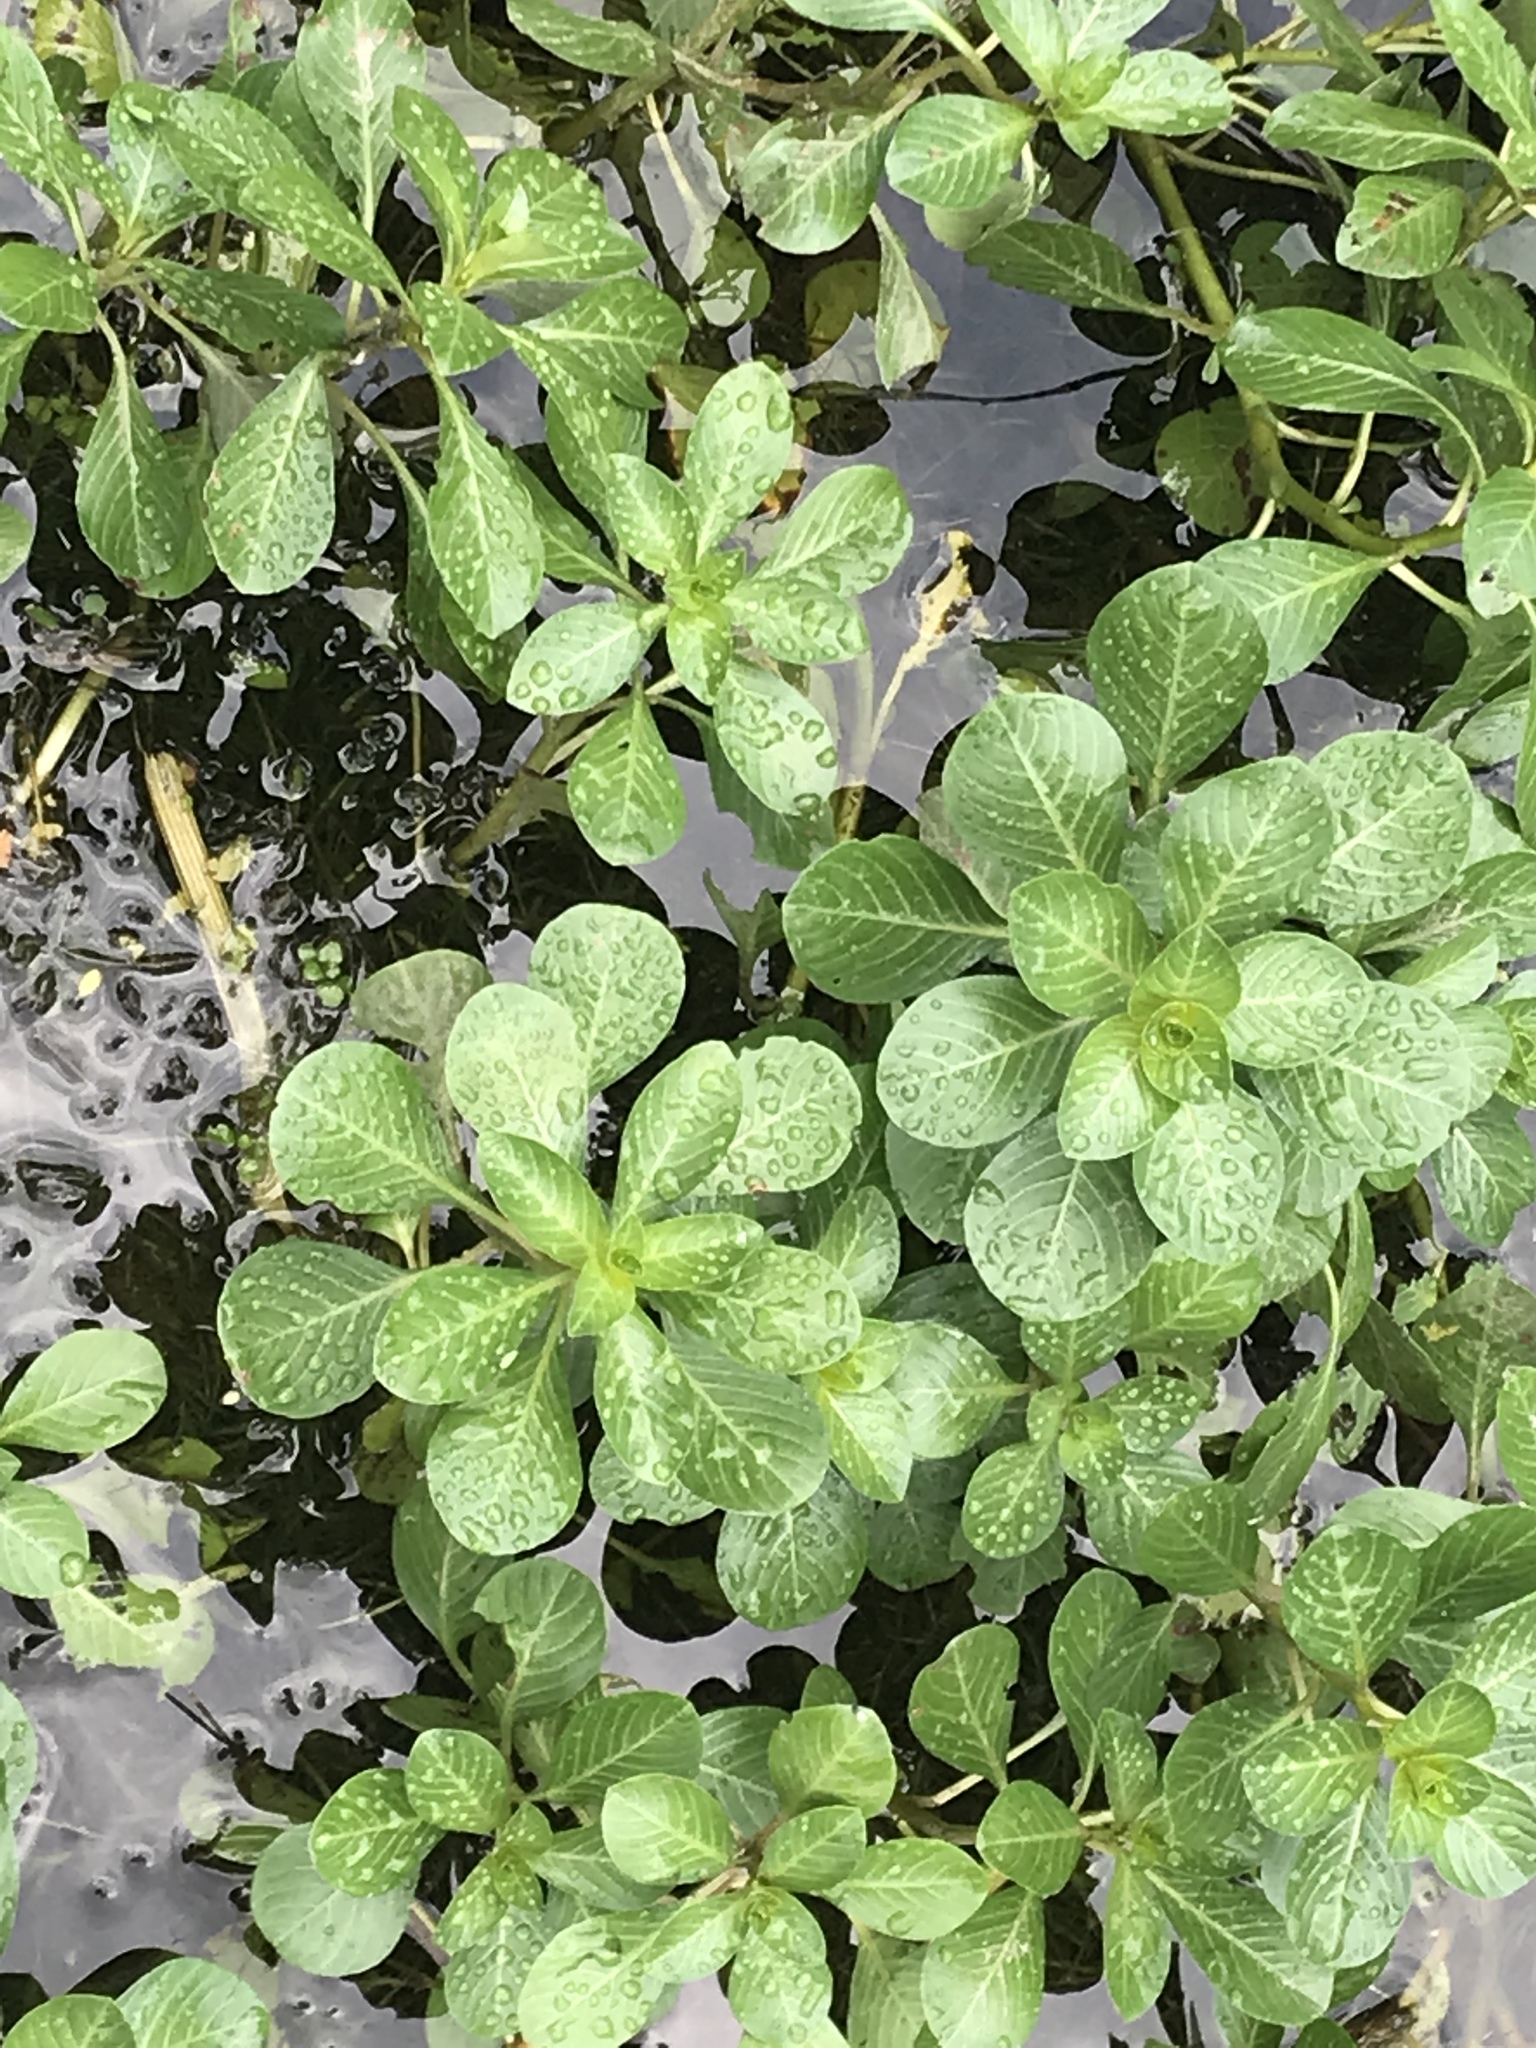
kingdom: Plantae
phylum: Tracheophyta
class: Magnoliopsida
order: Myrtales
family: Onagraceae
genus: Ludwigia
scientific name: Ludwigia peploides
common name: Floating primrose-willow
